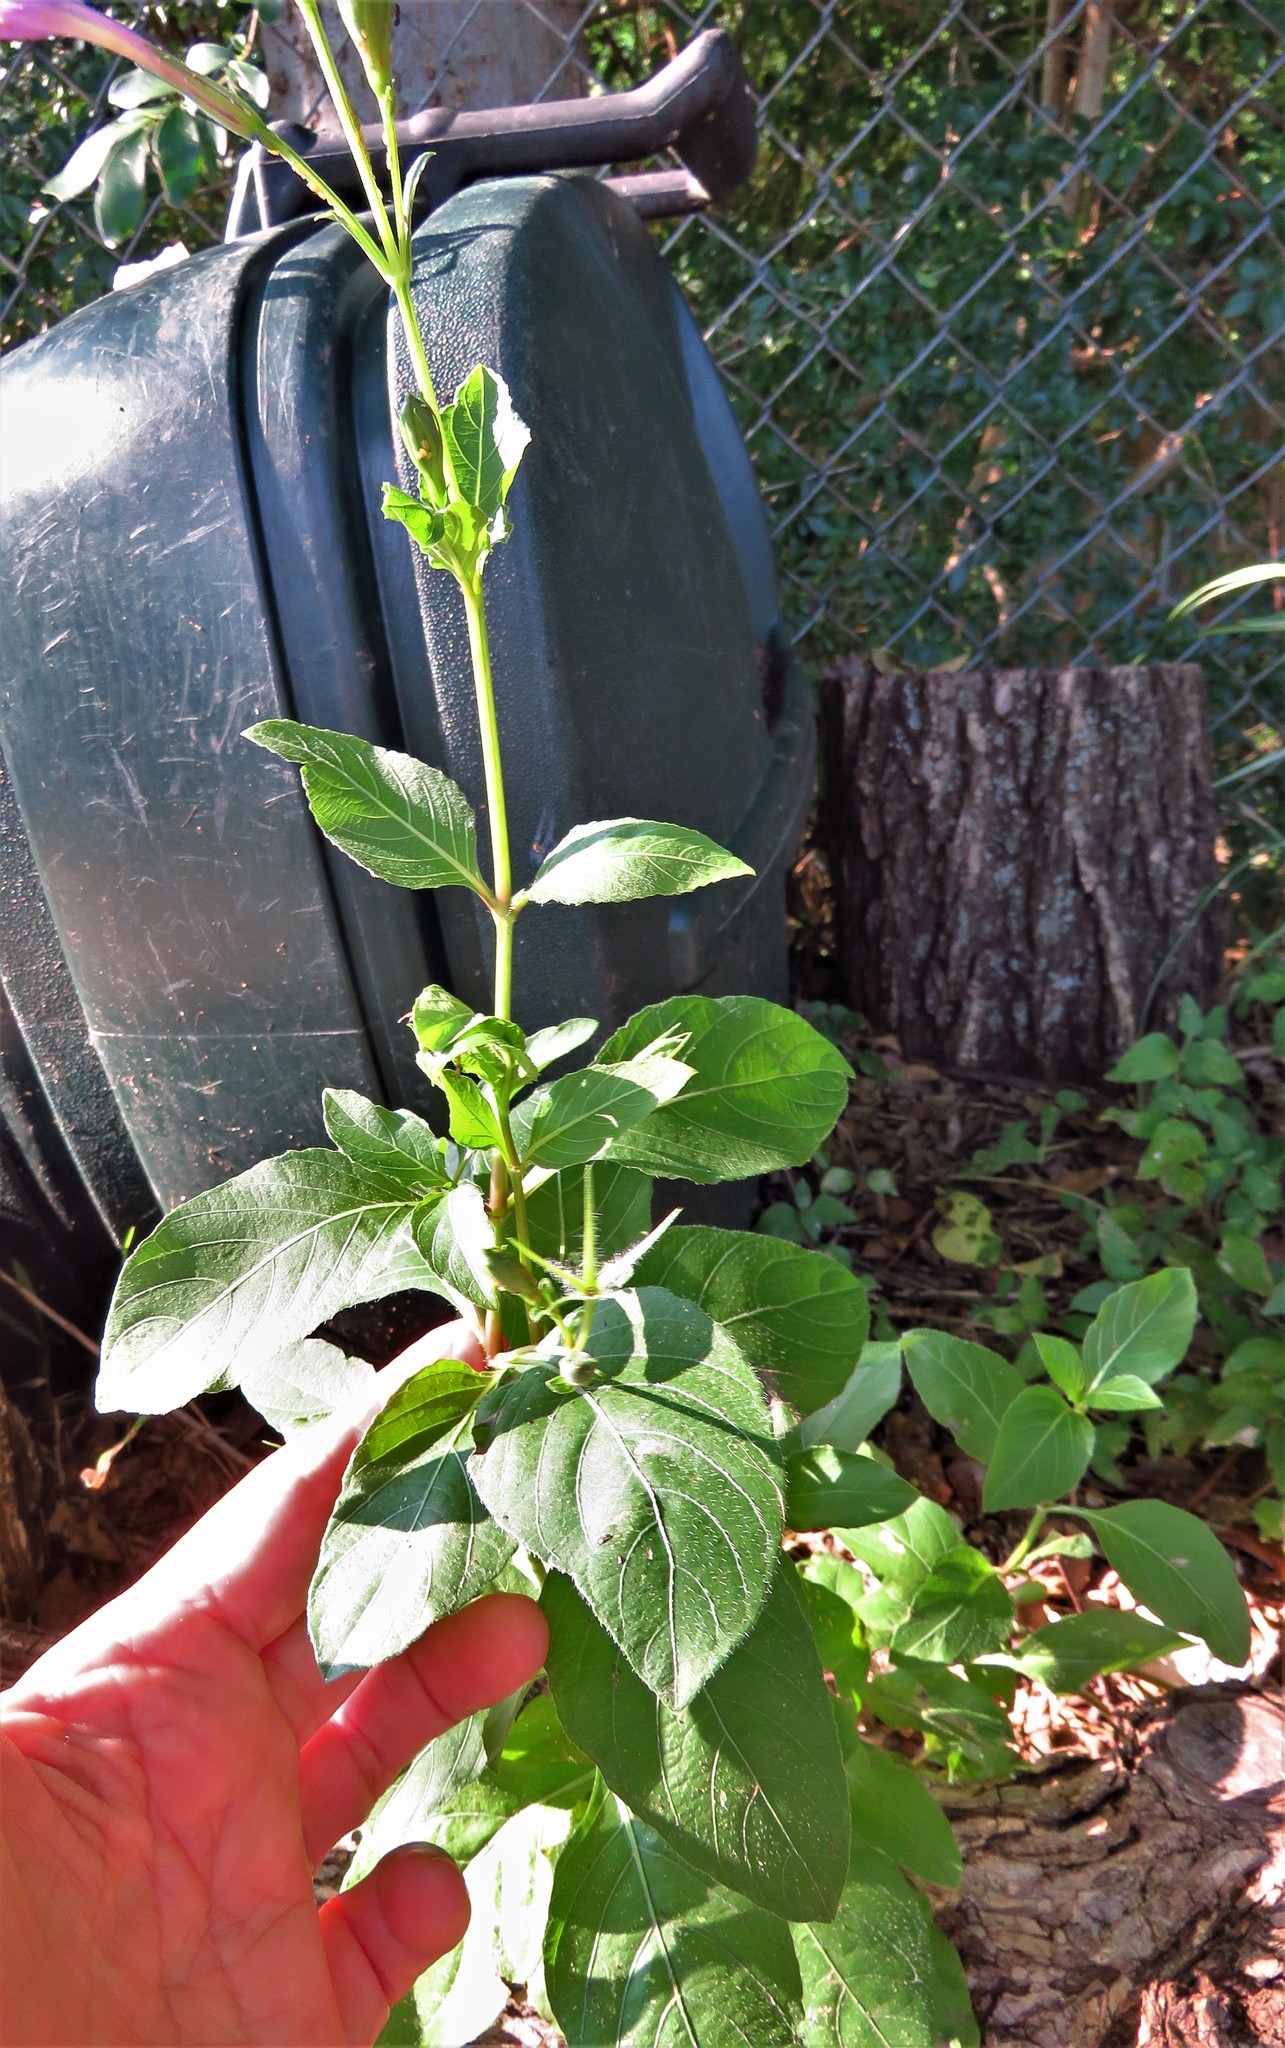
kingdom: Plantae
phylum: Tracheophyta
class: Magnoliopsida
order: Lamiales
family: Acanthaceae
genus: Ruellia
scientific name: Ruellia ciliatiflora
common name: Hairyflower wild petunia
